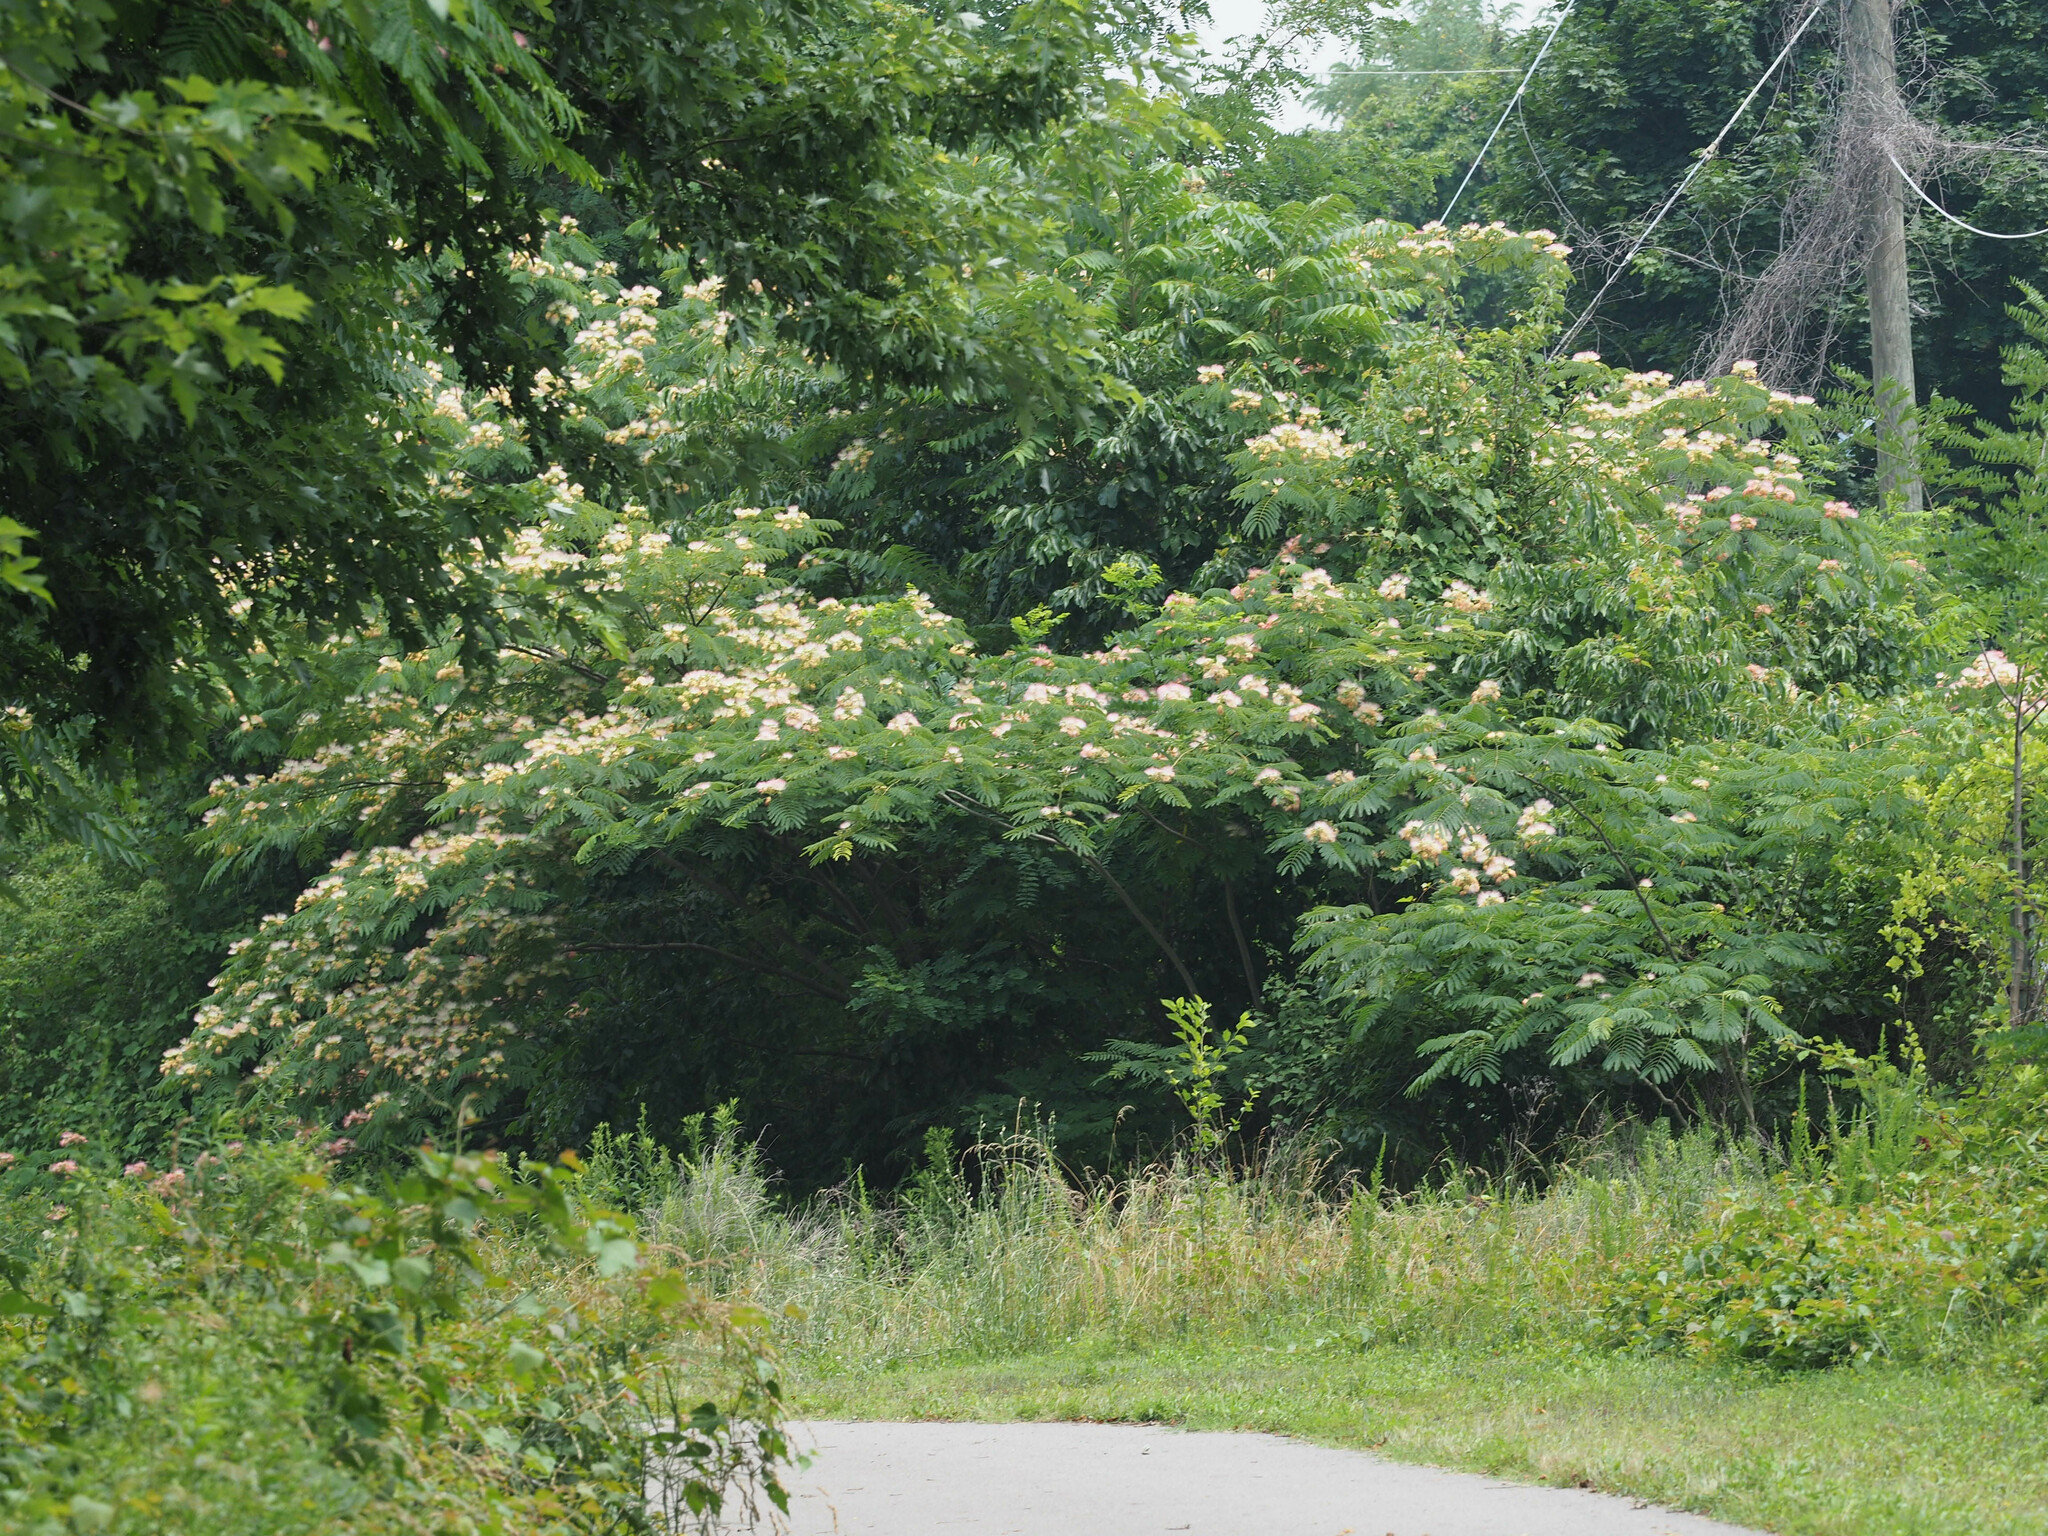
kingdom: Plantae
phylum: Tracheophyta
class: Magnoliopsida
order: Fabales
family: Fabaceae
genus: Albizia
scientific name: Albizia julibrissin
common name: Silktree
